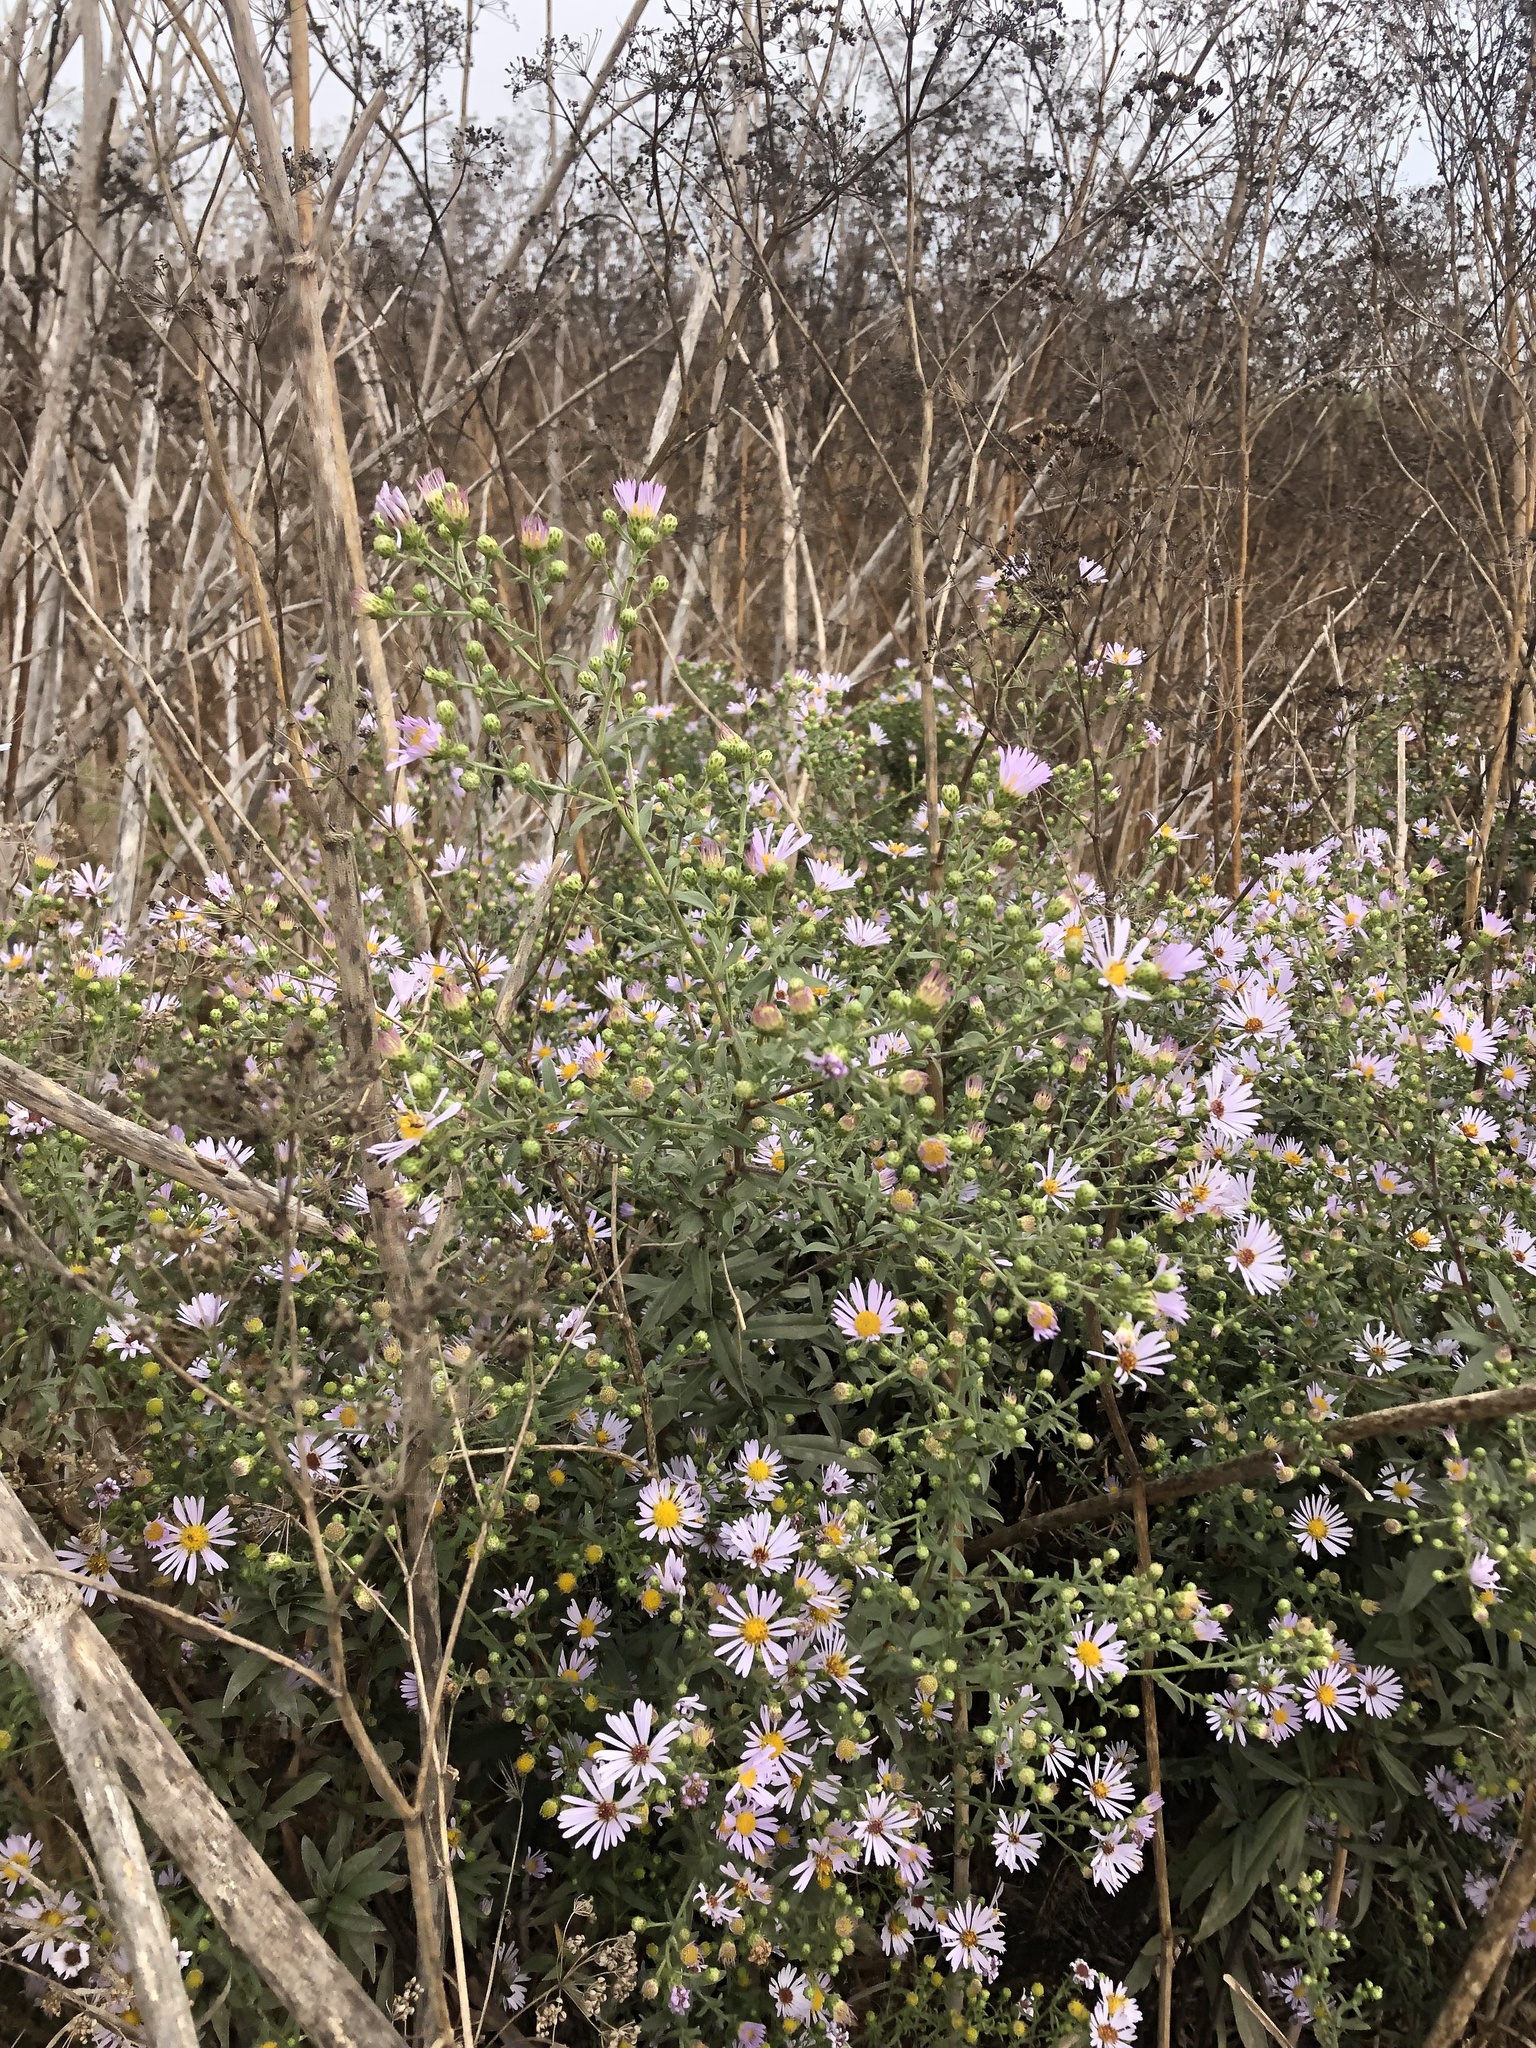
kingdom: Plantae
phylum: Tracheophyta
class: Magnoliopsida
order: Asterales
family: Asteraceae
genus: Symphyotrichum
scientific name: Symphyotrichum chilense
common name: Pacific aster
